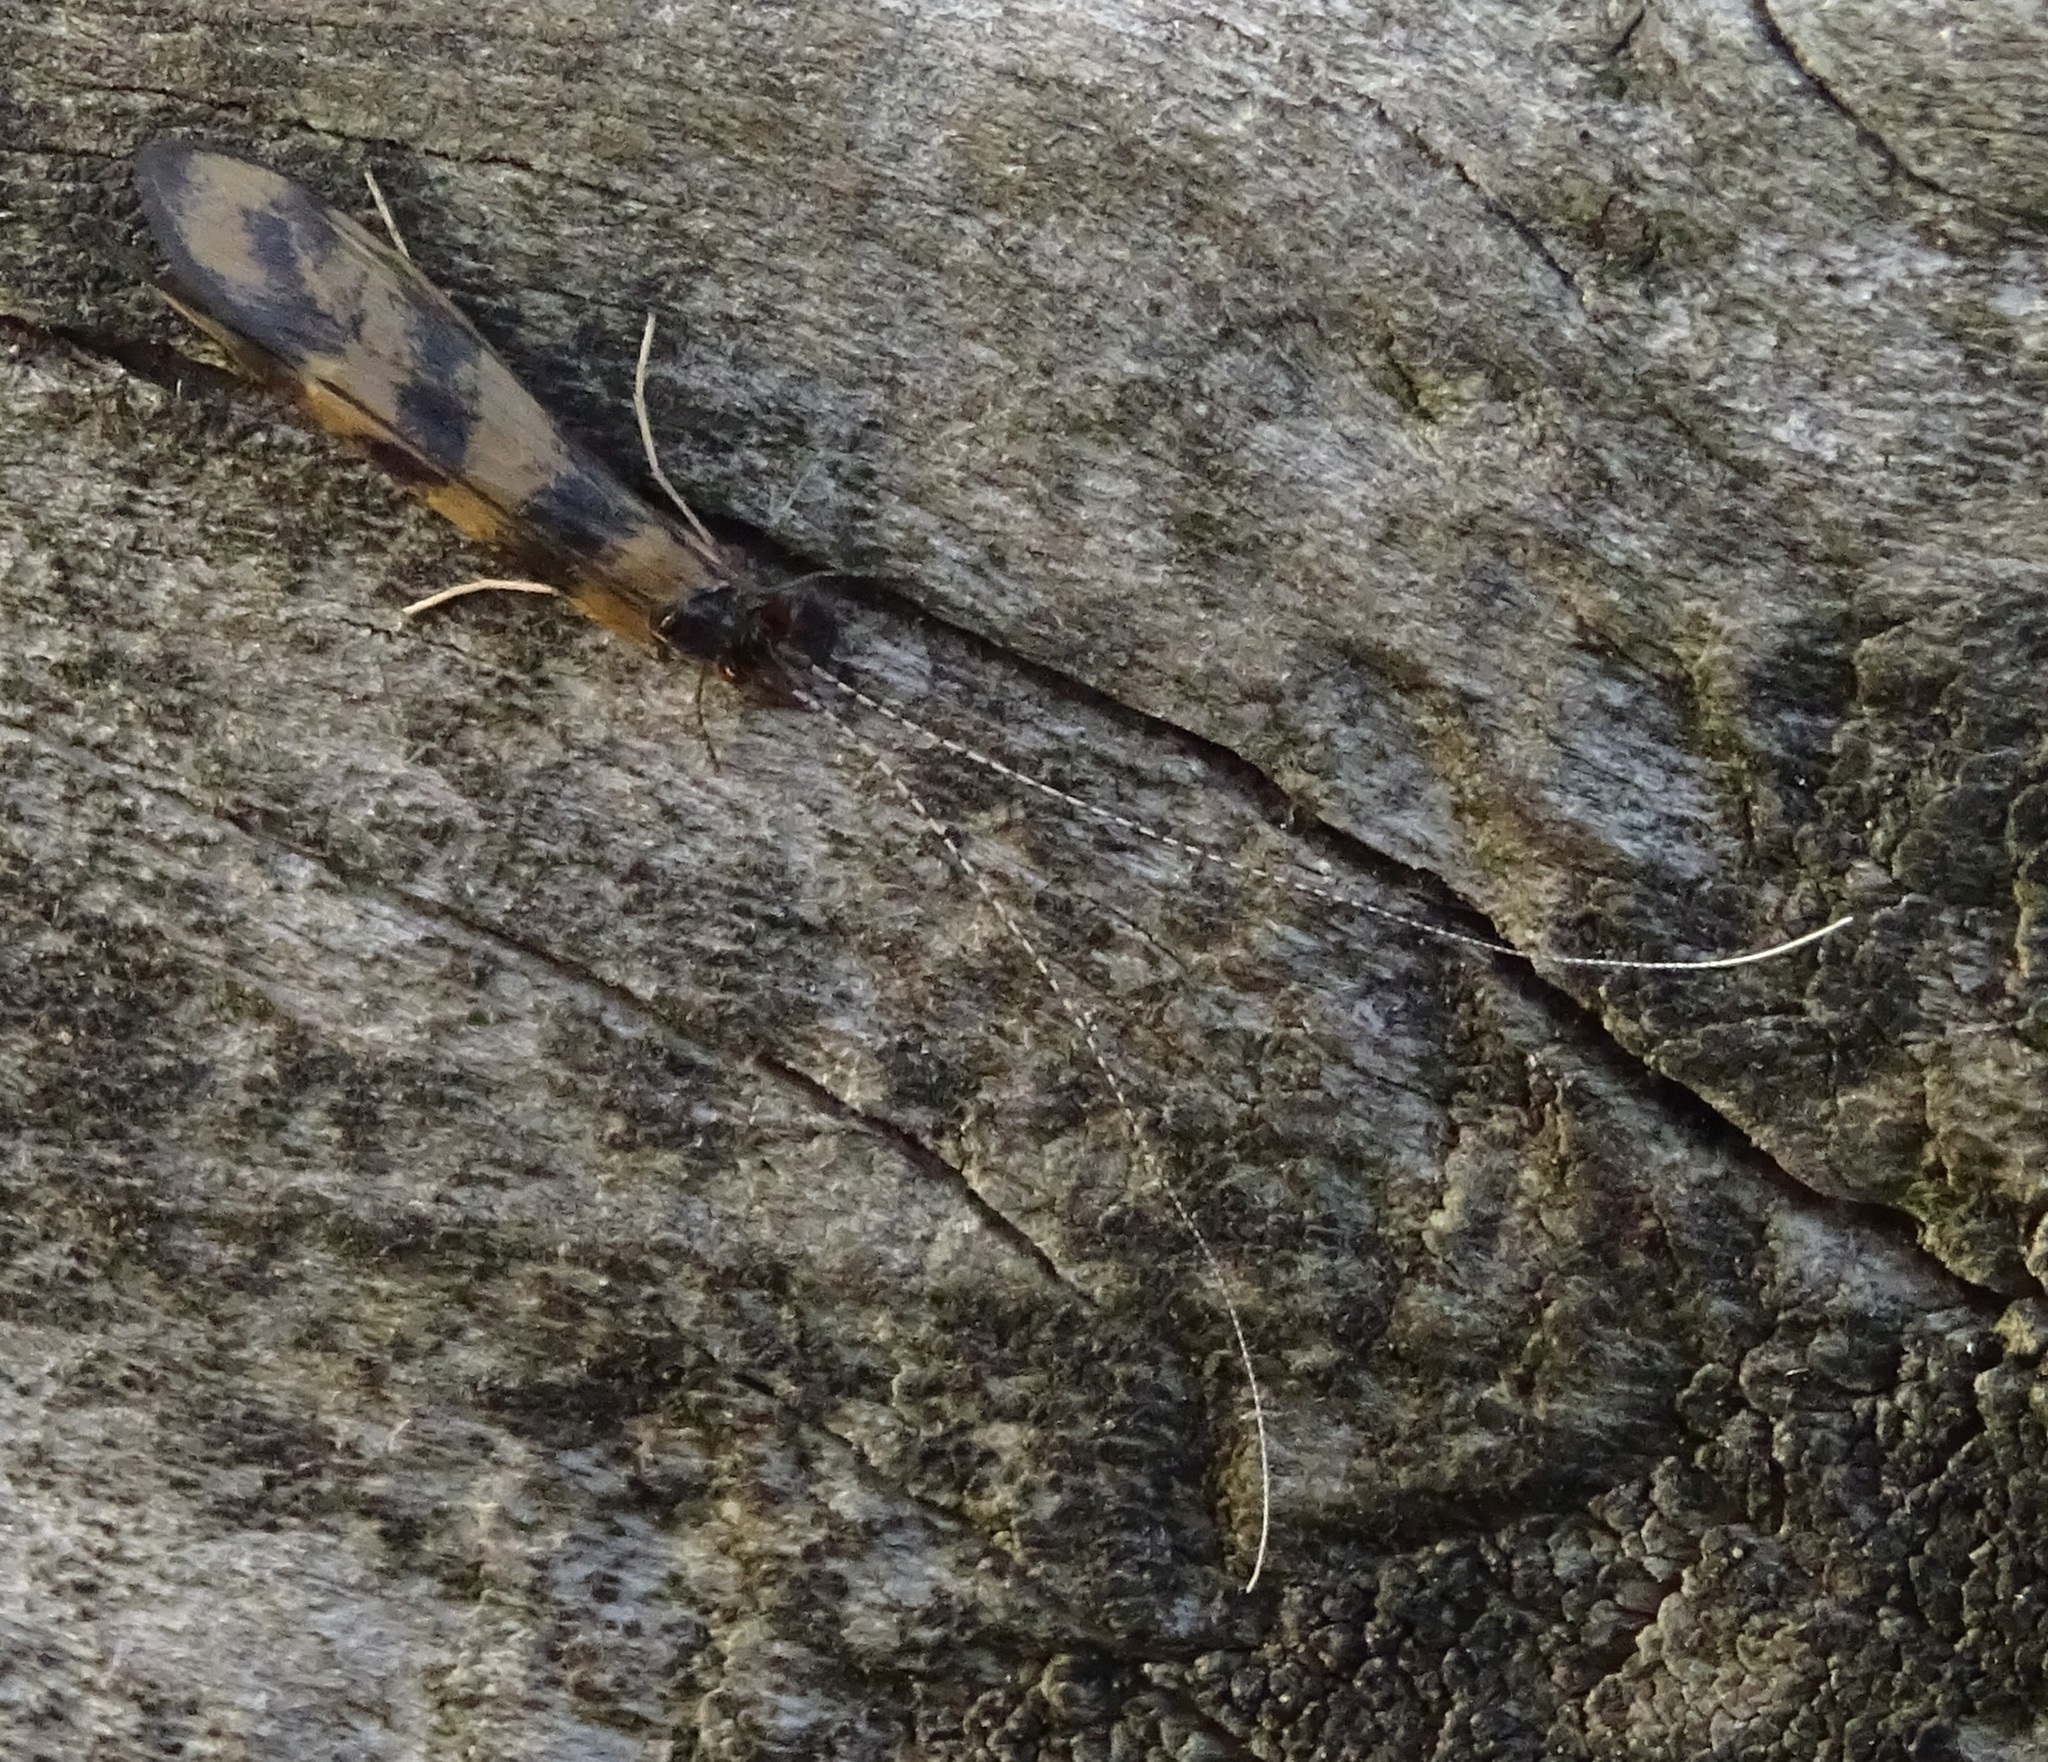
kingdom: Animalia
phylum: Arthropoda
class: Insecta
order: Trichoptera
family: Leptoceridae
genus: Mystacides
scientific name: Mystacides longicornis
